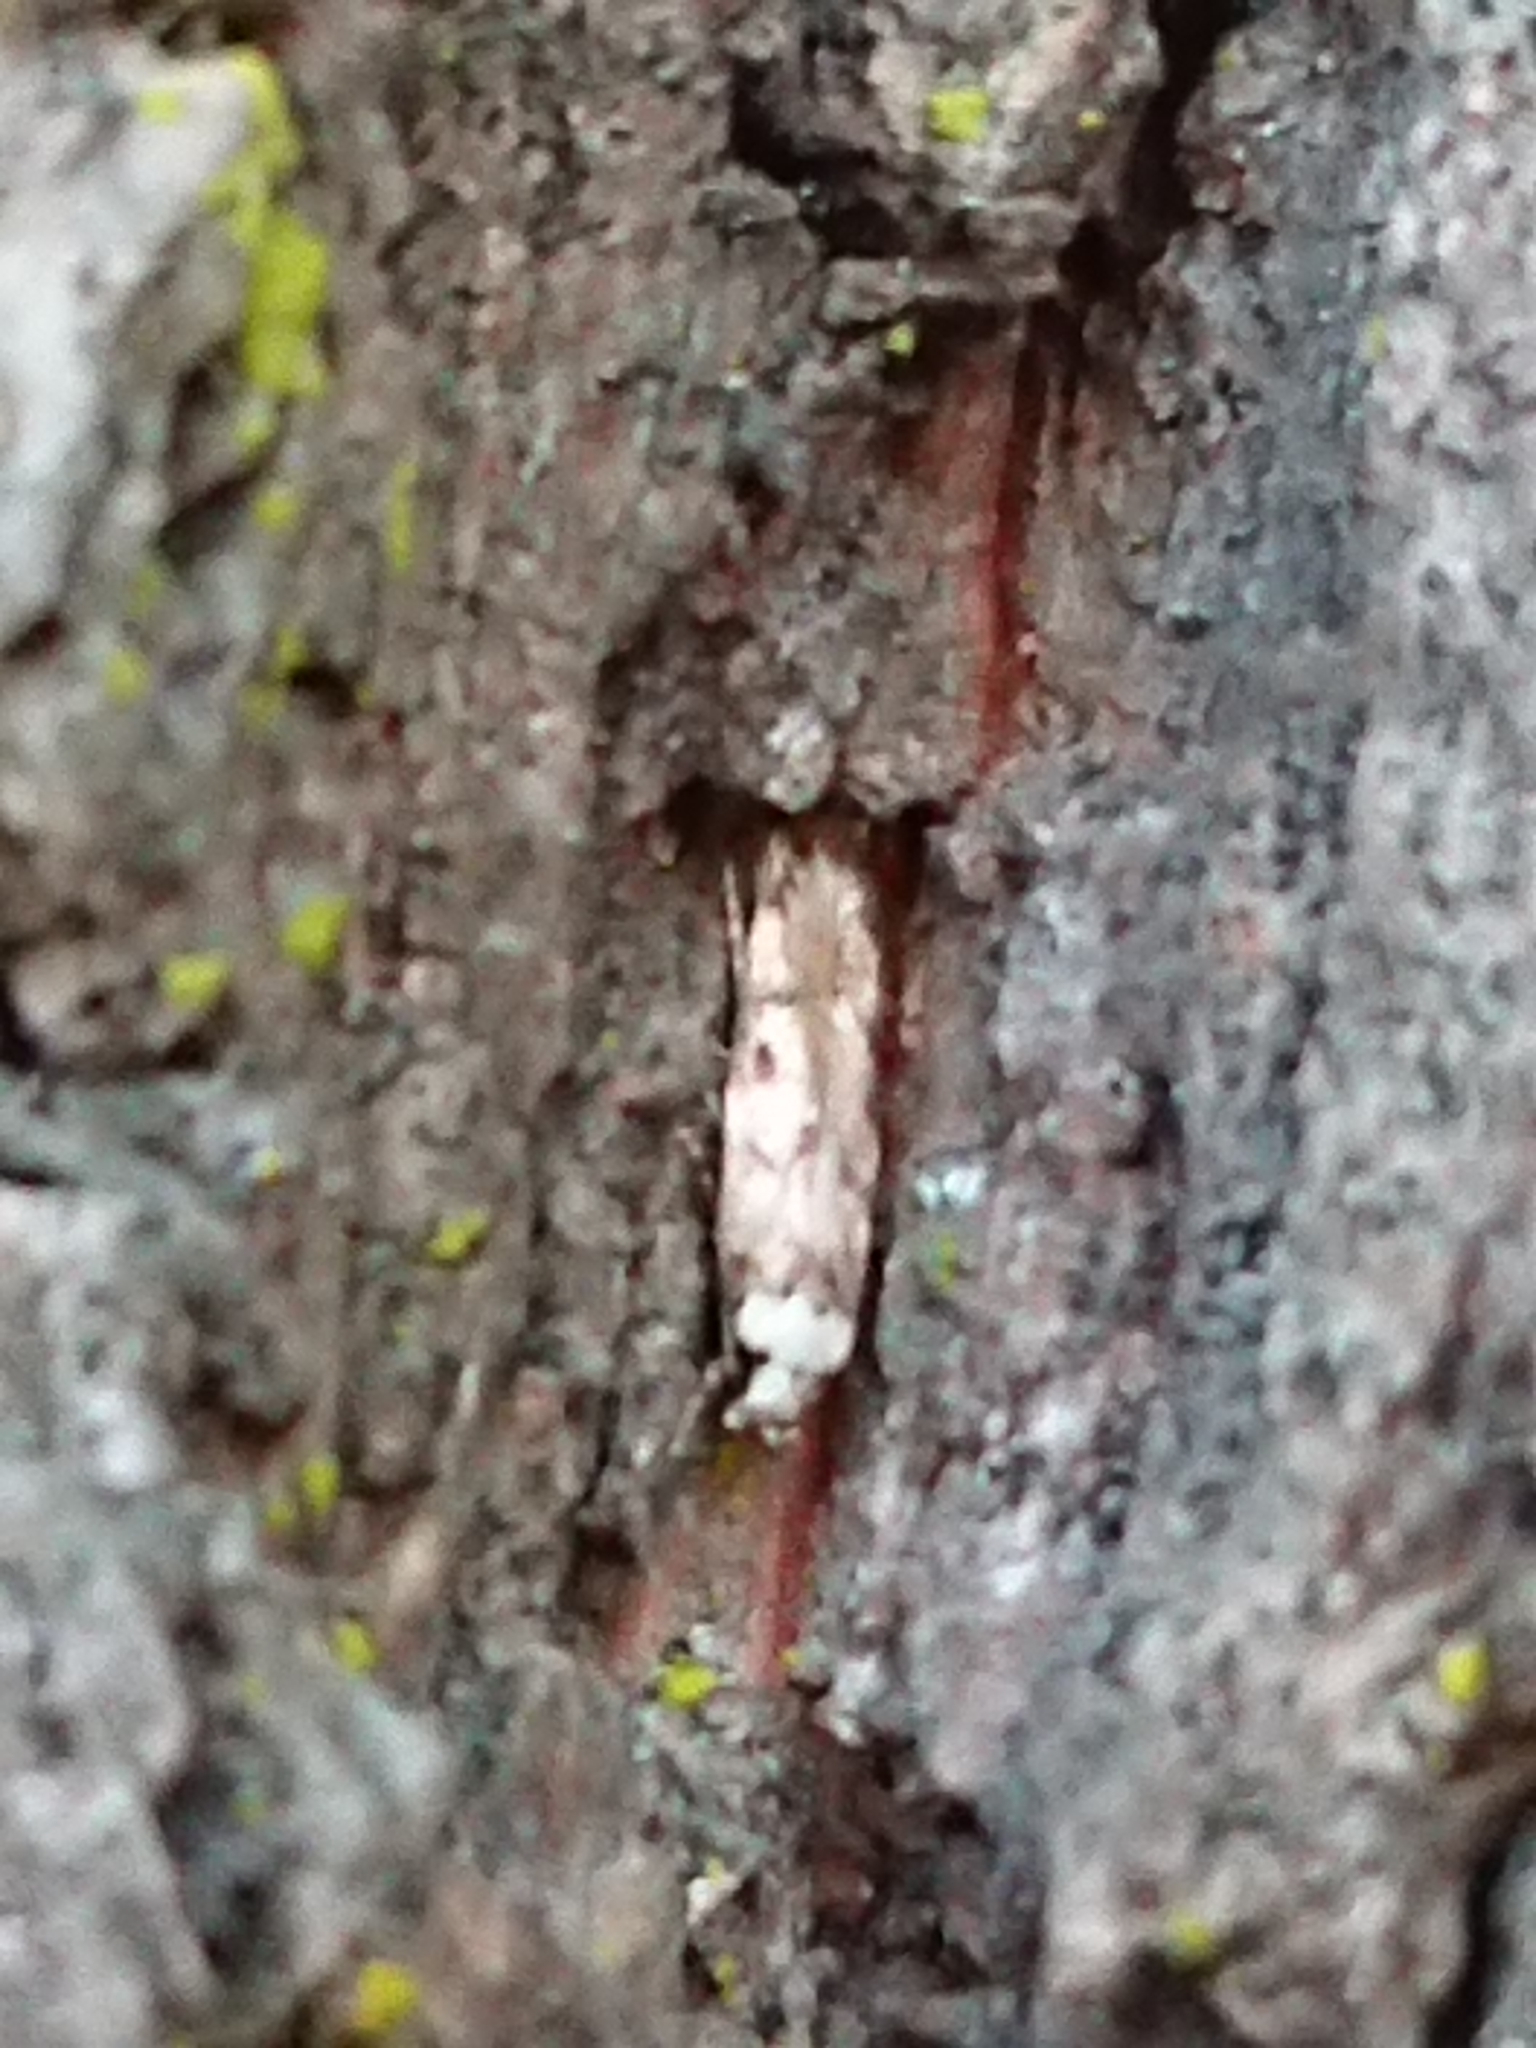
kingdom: Animalia
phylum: Arthropoda
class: Insecta
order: Lepidoptera
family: Oecophoridae
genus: Endrosis
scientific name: Endrosis sarcitrella
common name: White-shouldered house moth
